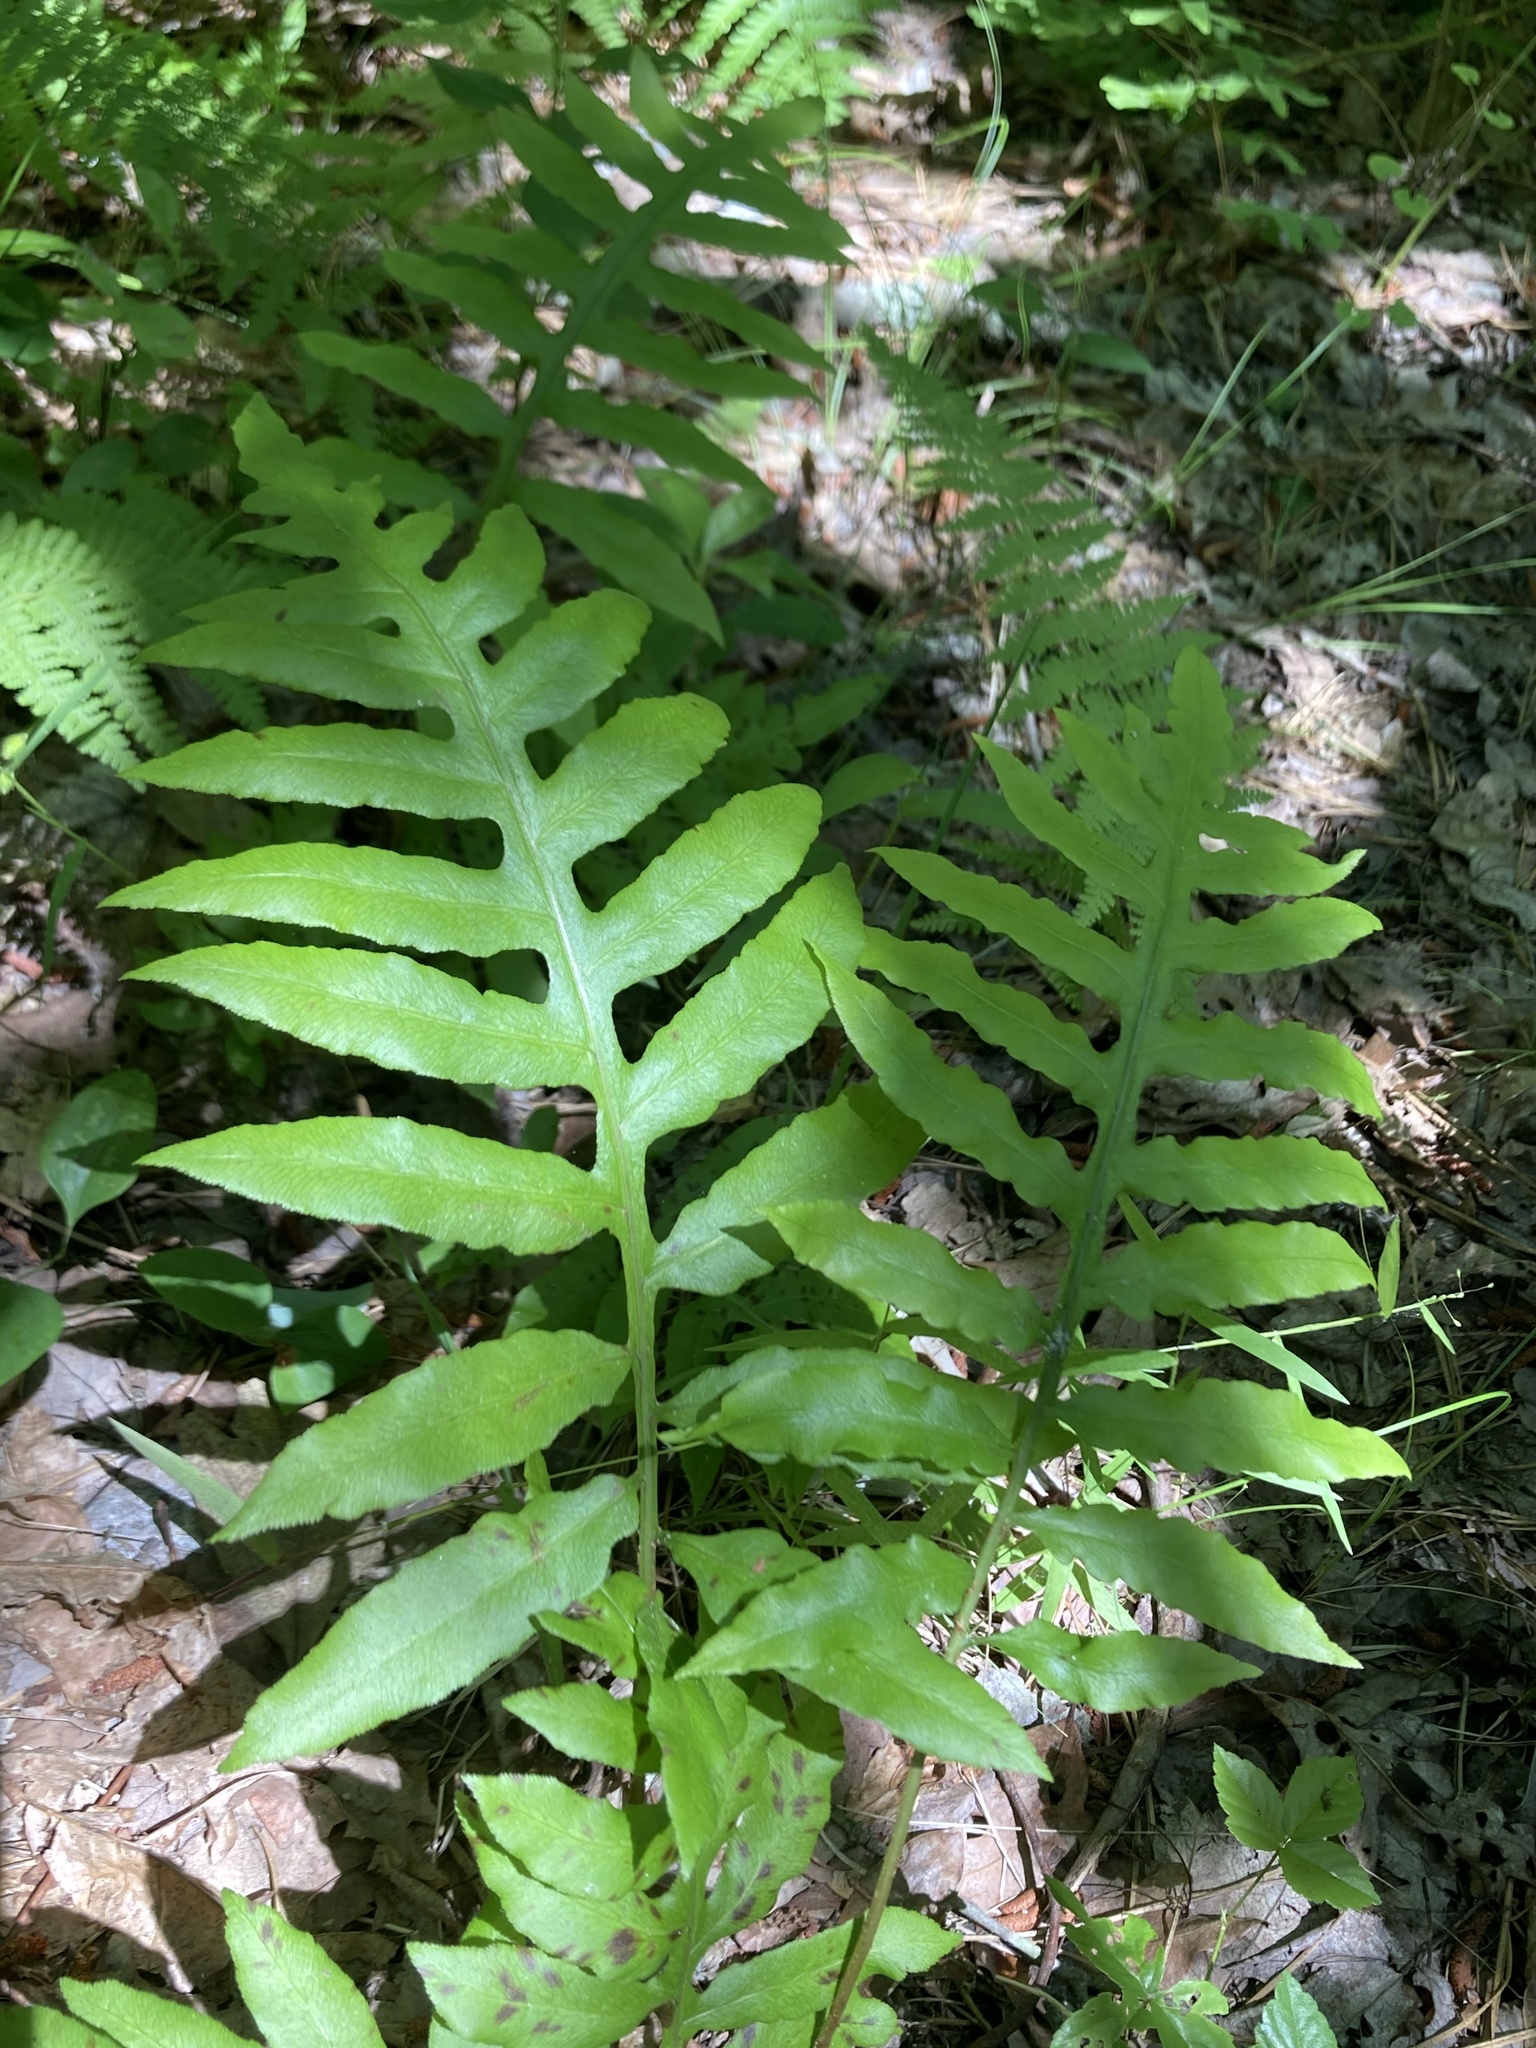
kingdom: Plantae
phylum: Tracheophyta
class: Polypodiopsida
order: Polypodiales
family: Blechnaceae
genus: Lorinseria
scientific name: Lorinseria areolata
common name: Dwarf chain fern
